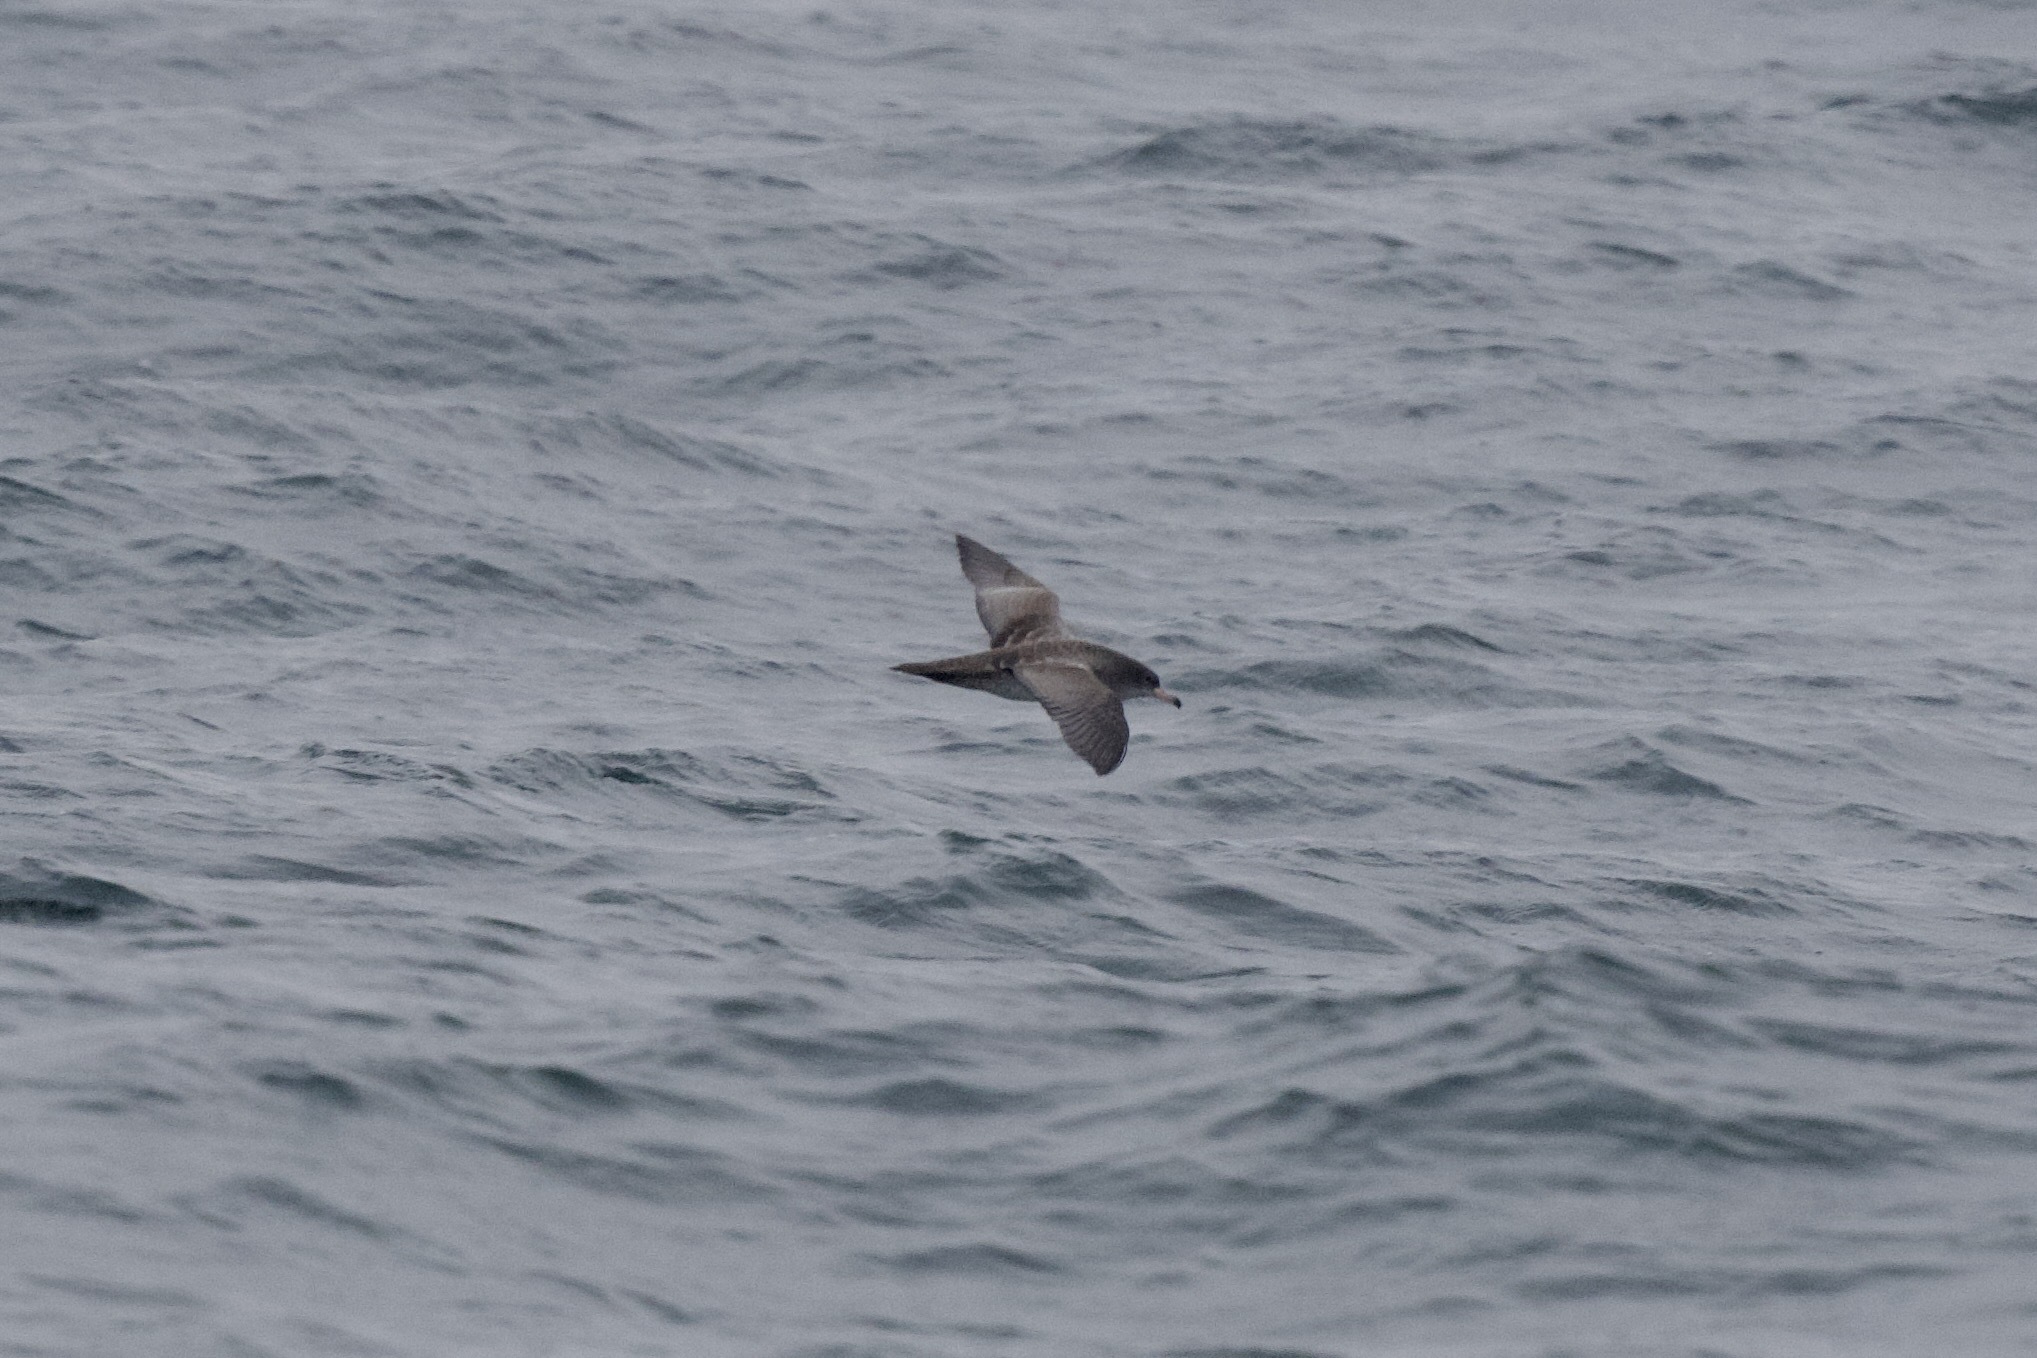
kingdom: Animalia
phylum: Chordata
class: Aves
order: Procellariiformes
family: Procellariidae
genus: Puffinus
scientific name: Puffinus creatopus
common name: Pink-footed shearwater
